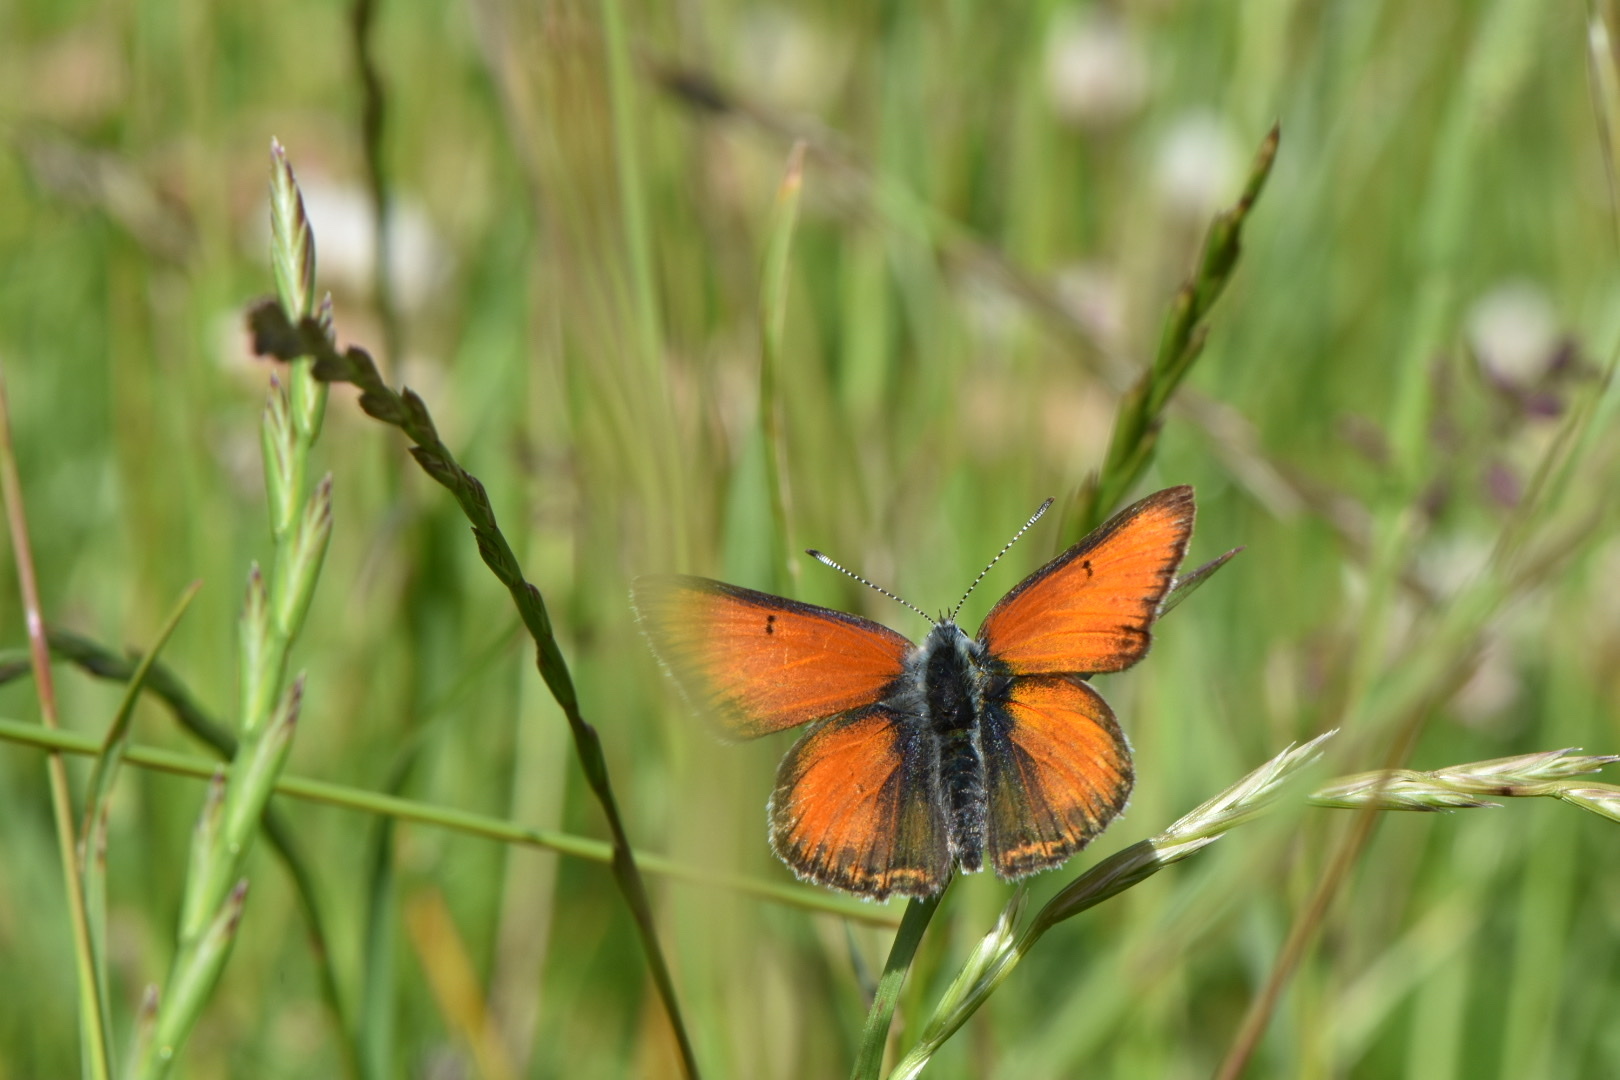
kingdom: Animalia
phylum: Arthropoda
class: Insecta
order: Lepidoptera
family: Lycaenidae
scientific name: Lycaenidae
